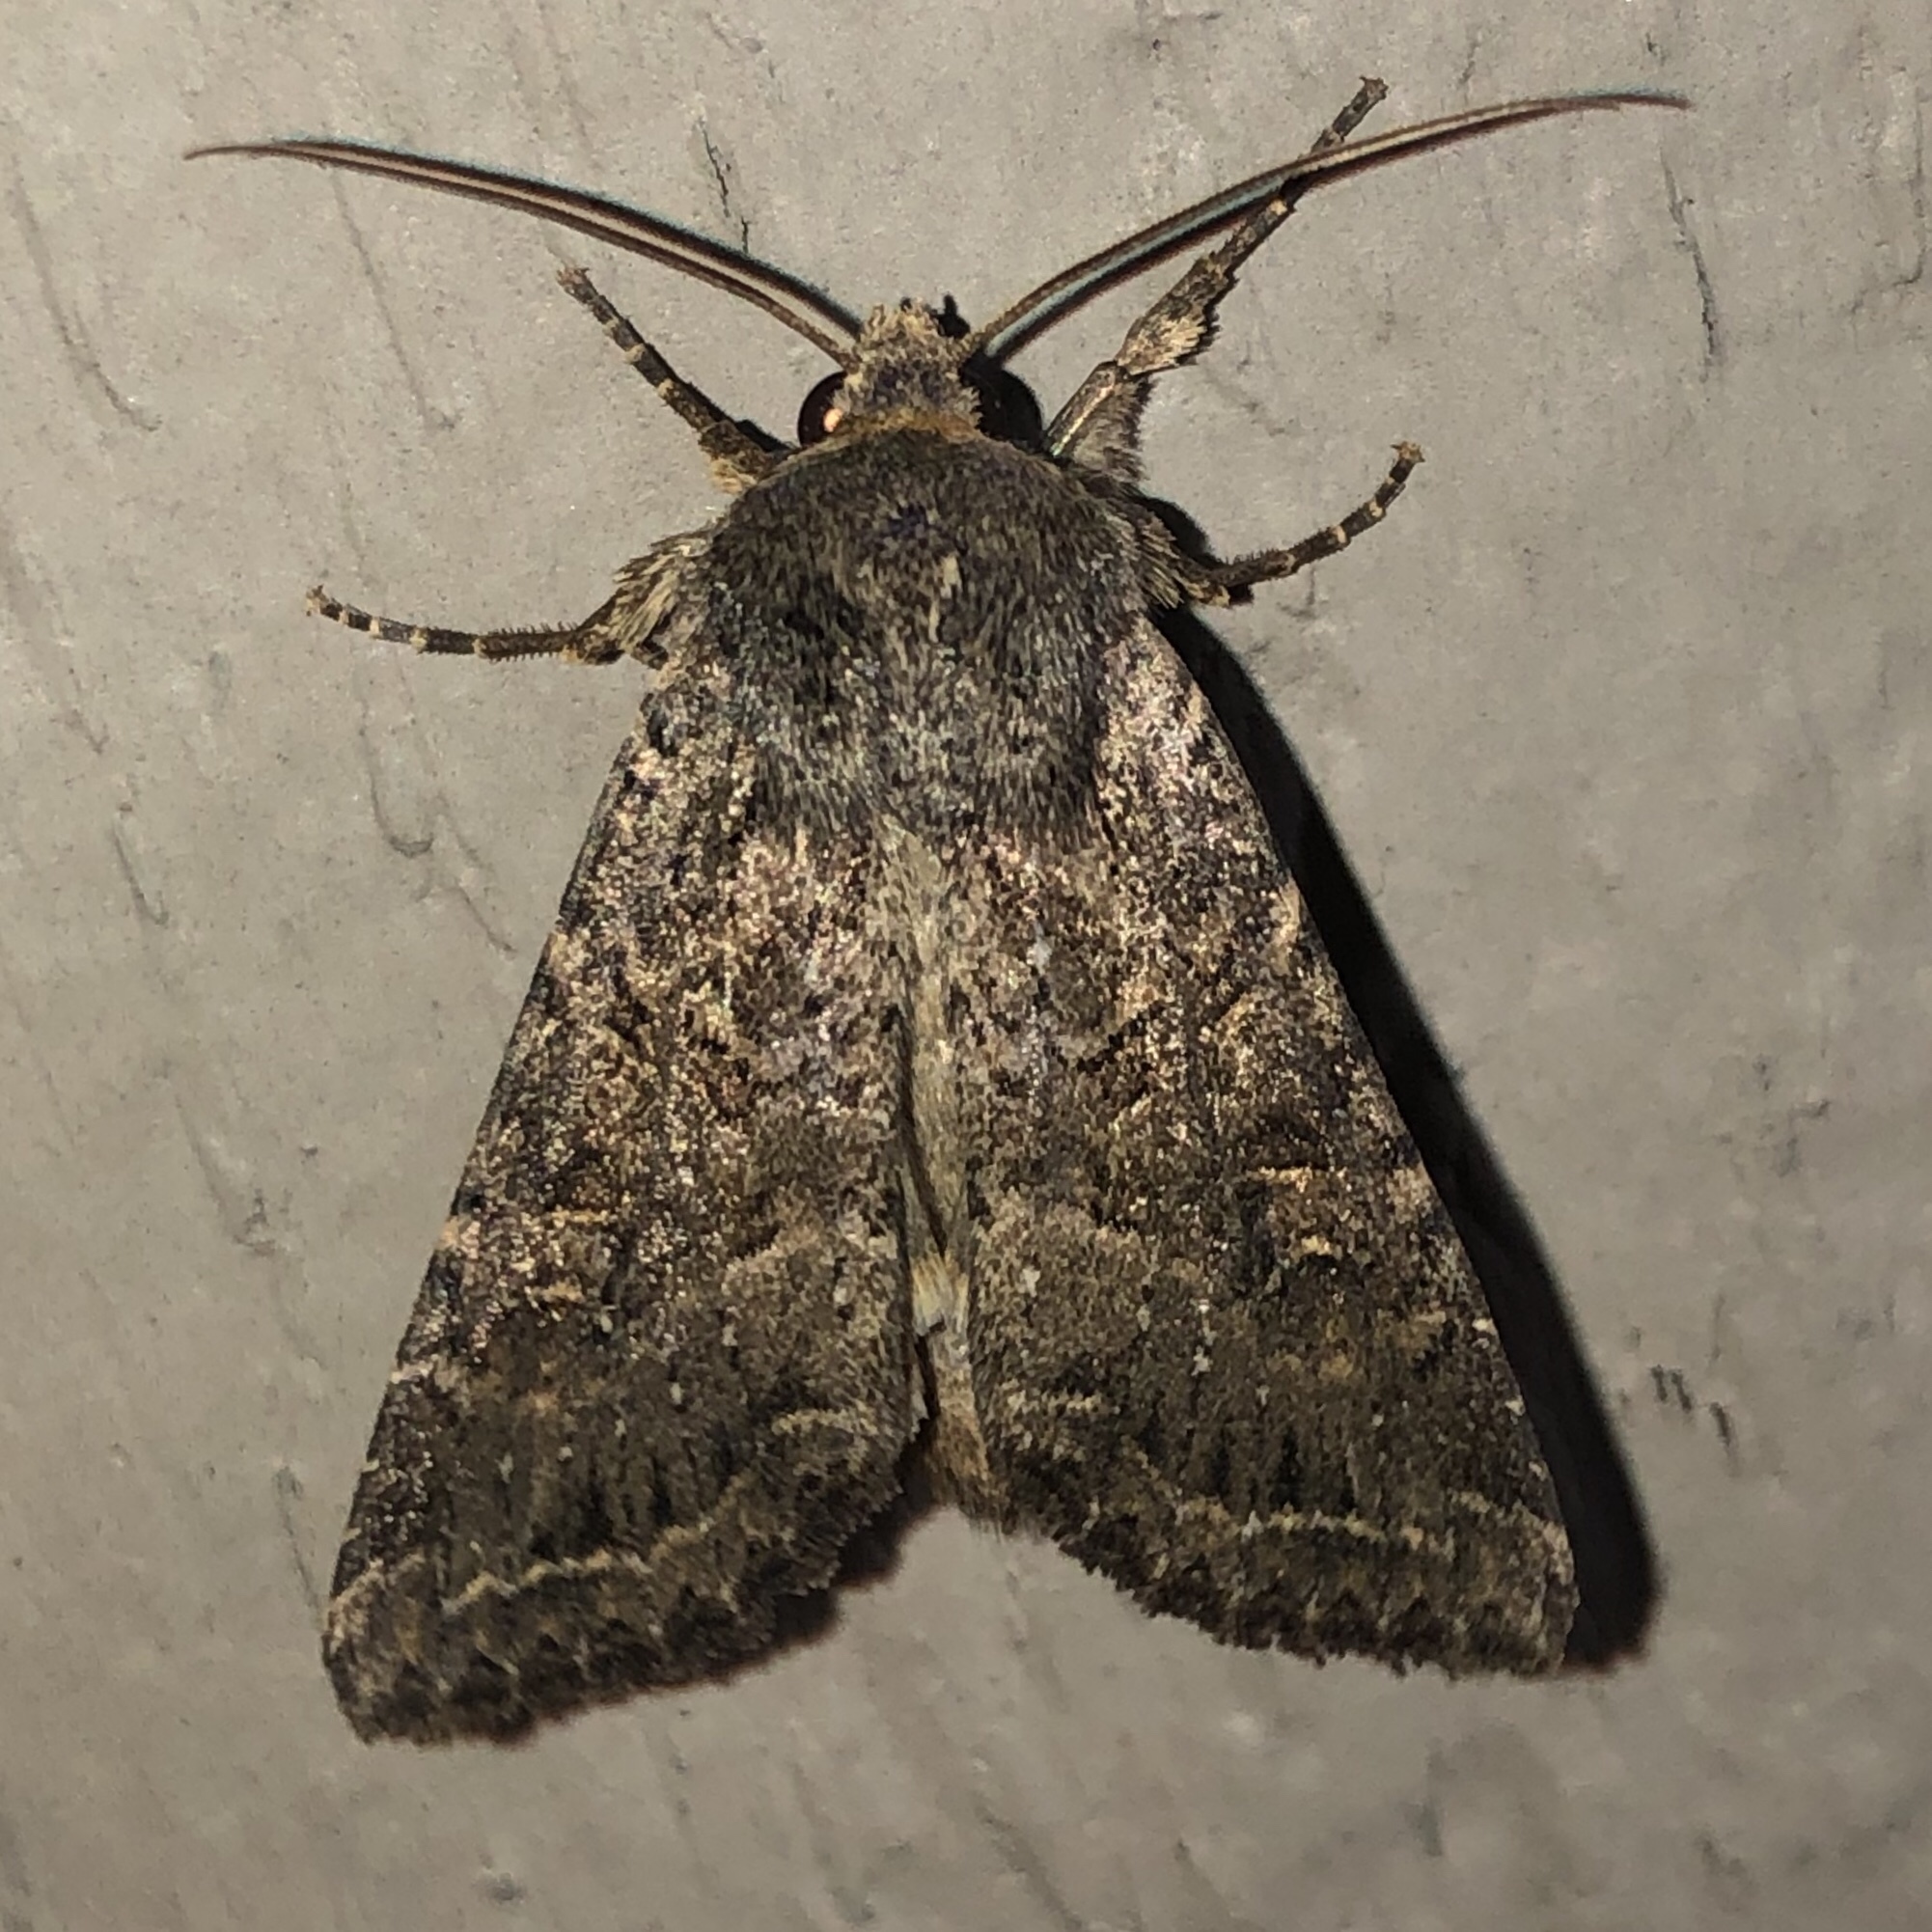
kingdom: Animalia
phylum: Arthropoda
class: Insecta
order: Lepidoptera
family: Noctuidae
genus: Apamea
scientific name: Apamea devastator
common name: Glassy cutworm
